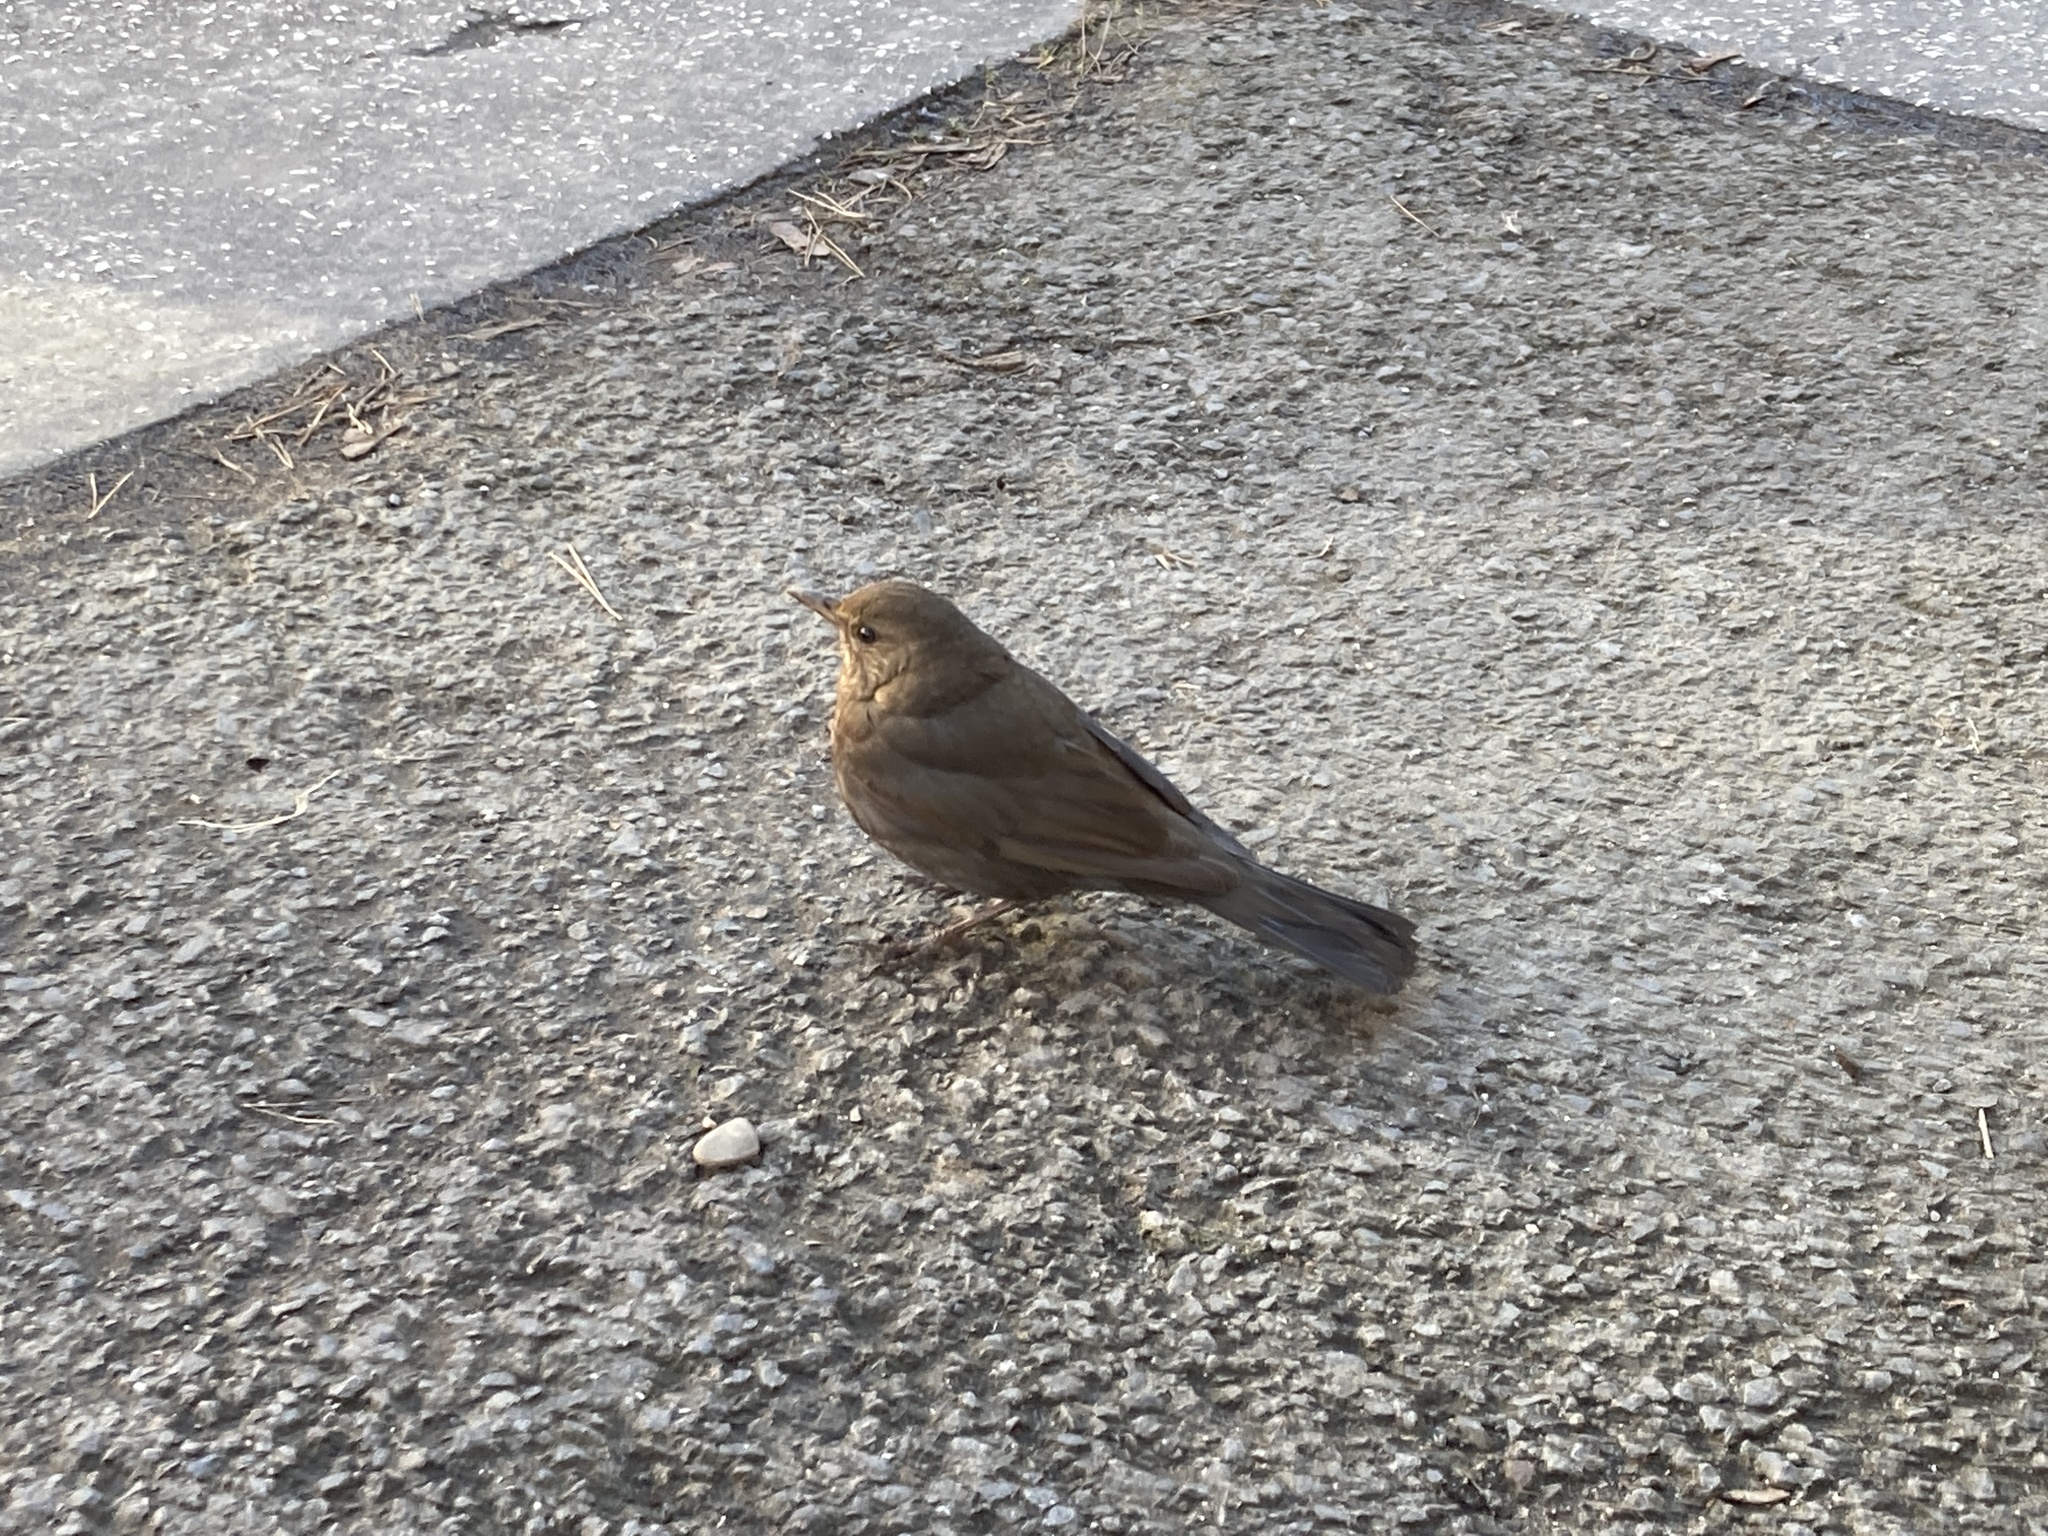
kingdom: Animalia
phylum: Chordata
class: Aves
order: Passeriformes
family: Turdidae
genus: Turdus
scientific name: Turdus merula
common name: Common blackbird
